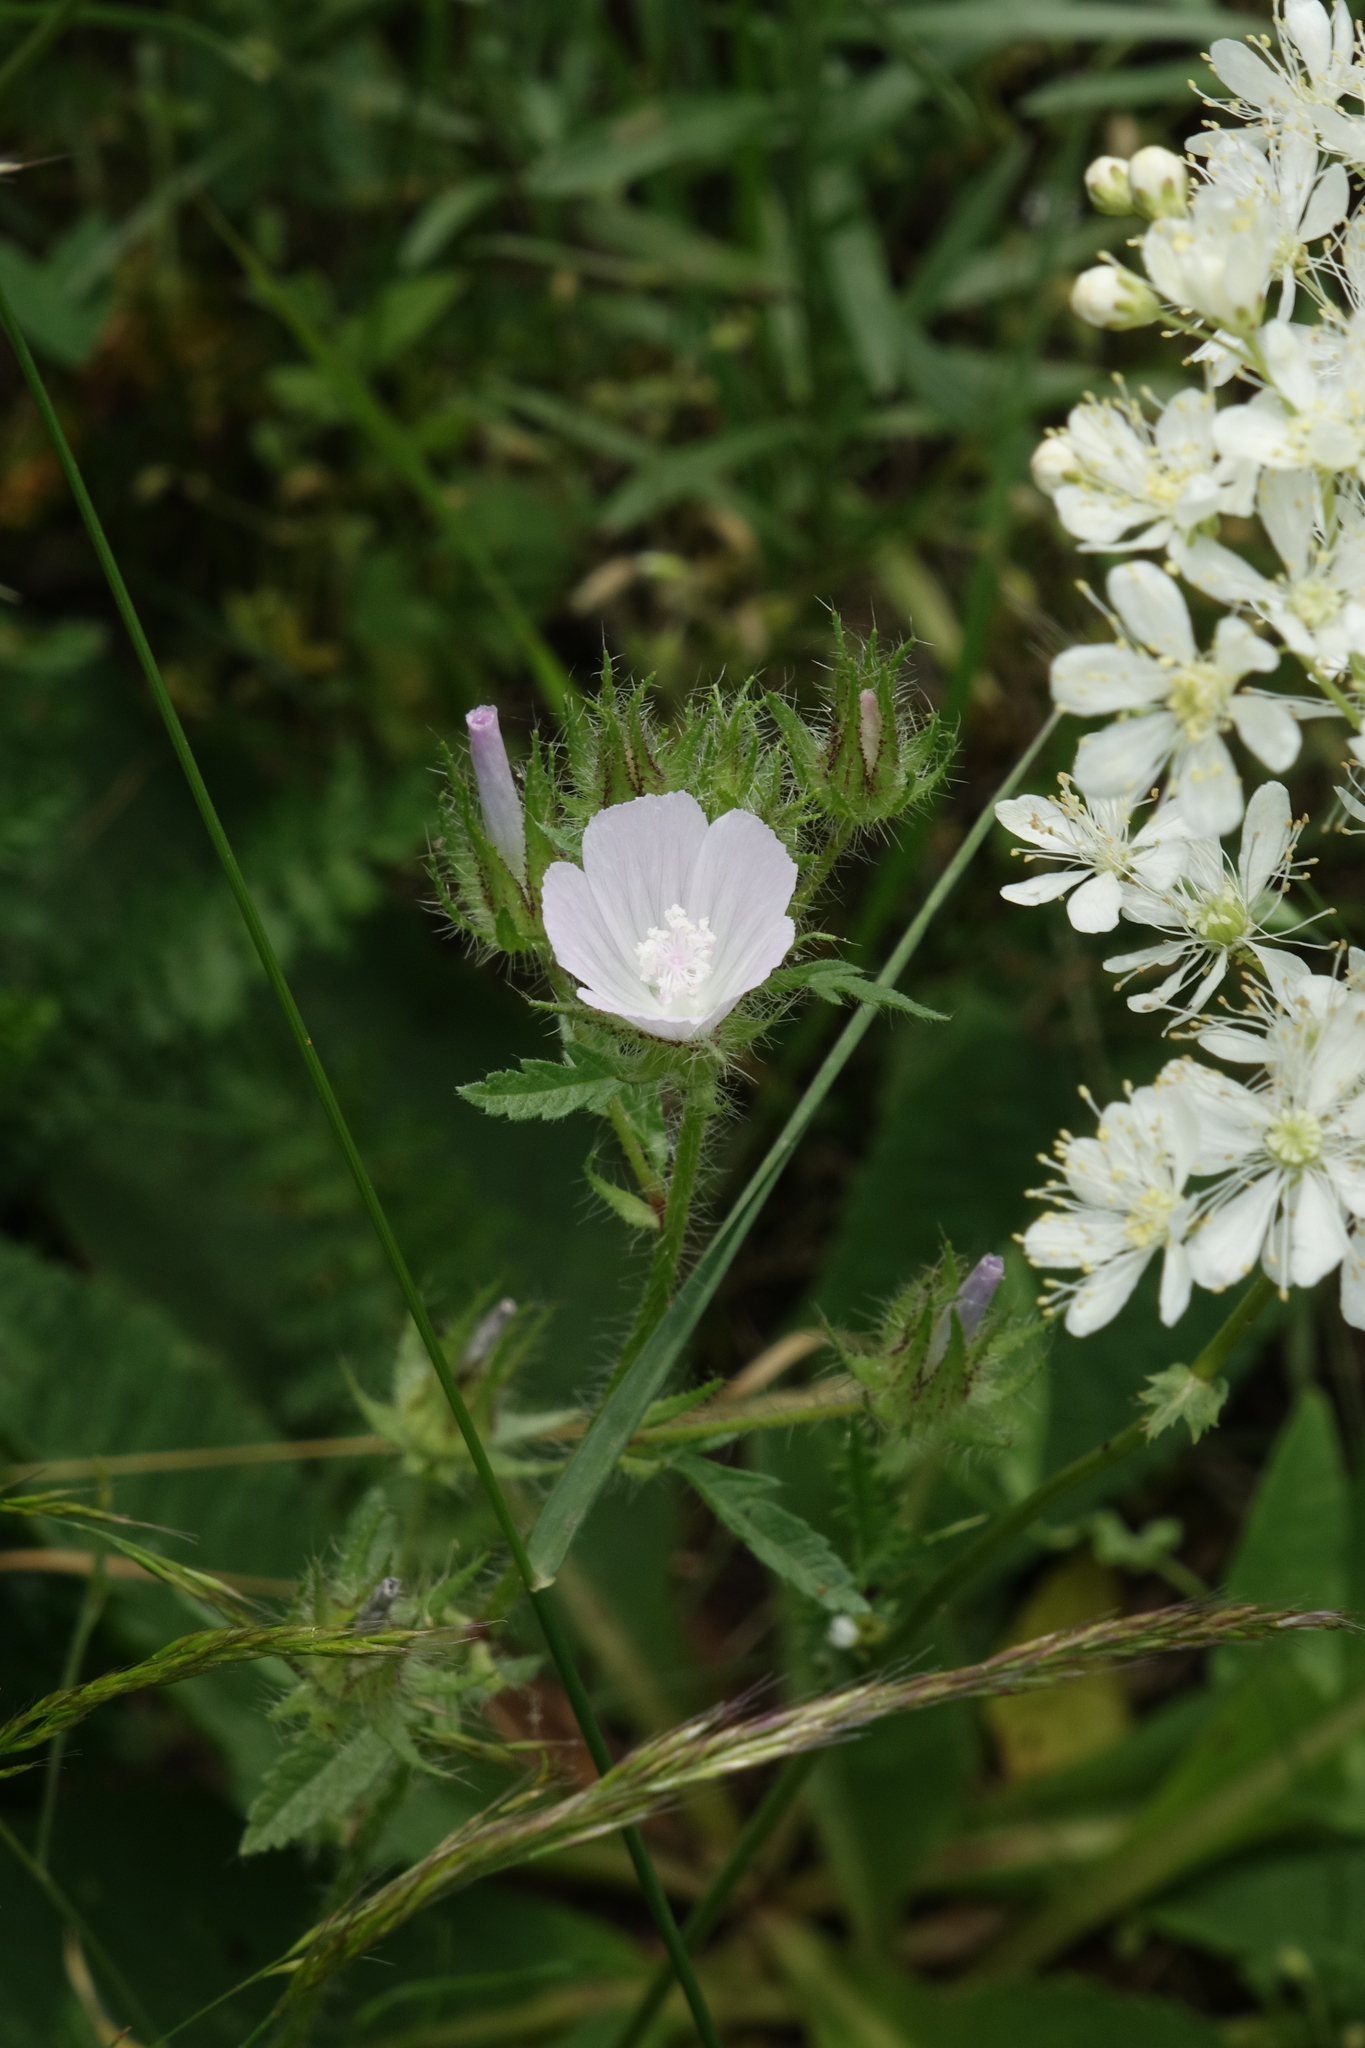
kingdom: Plantae
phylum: Tracheophyta
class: Magnoliopsida
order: Malvales
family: Malvaceae
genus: Althaea
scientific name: Althaea hirsuta
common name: Rough marsh-mallow
